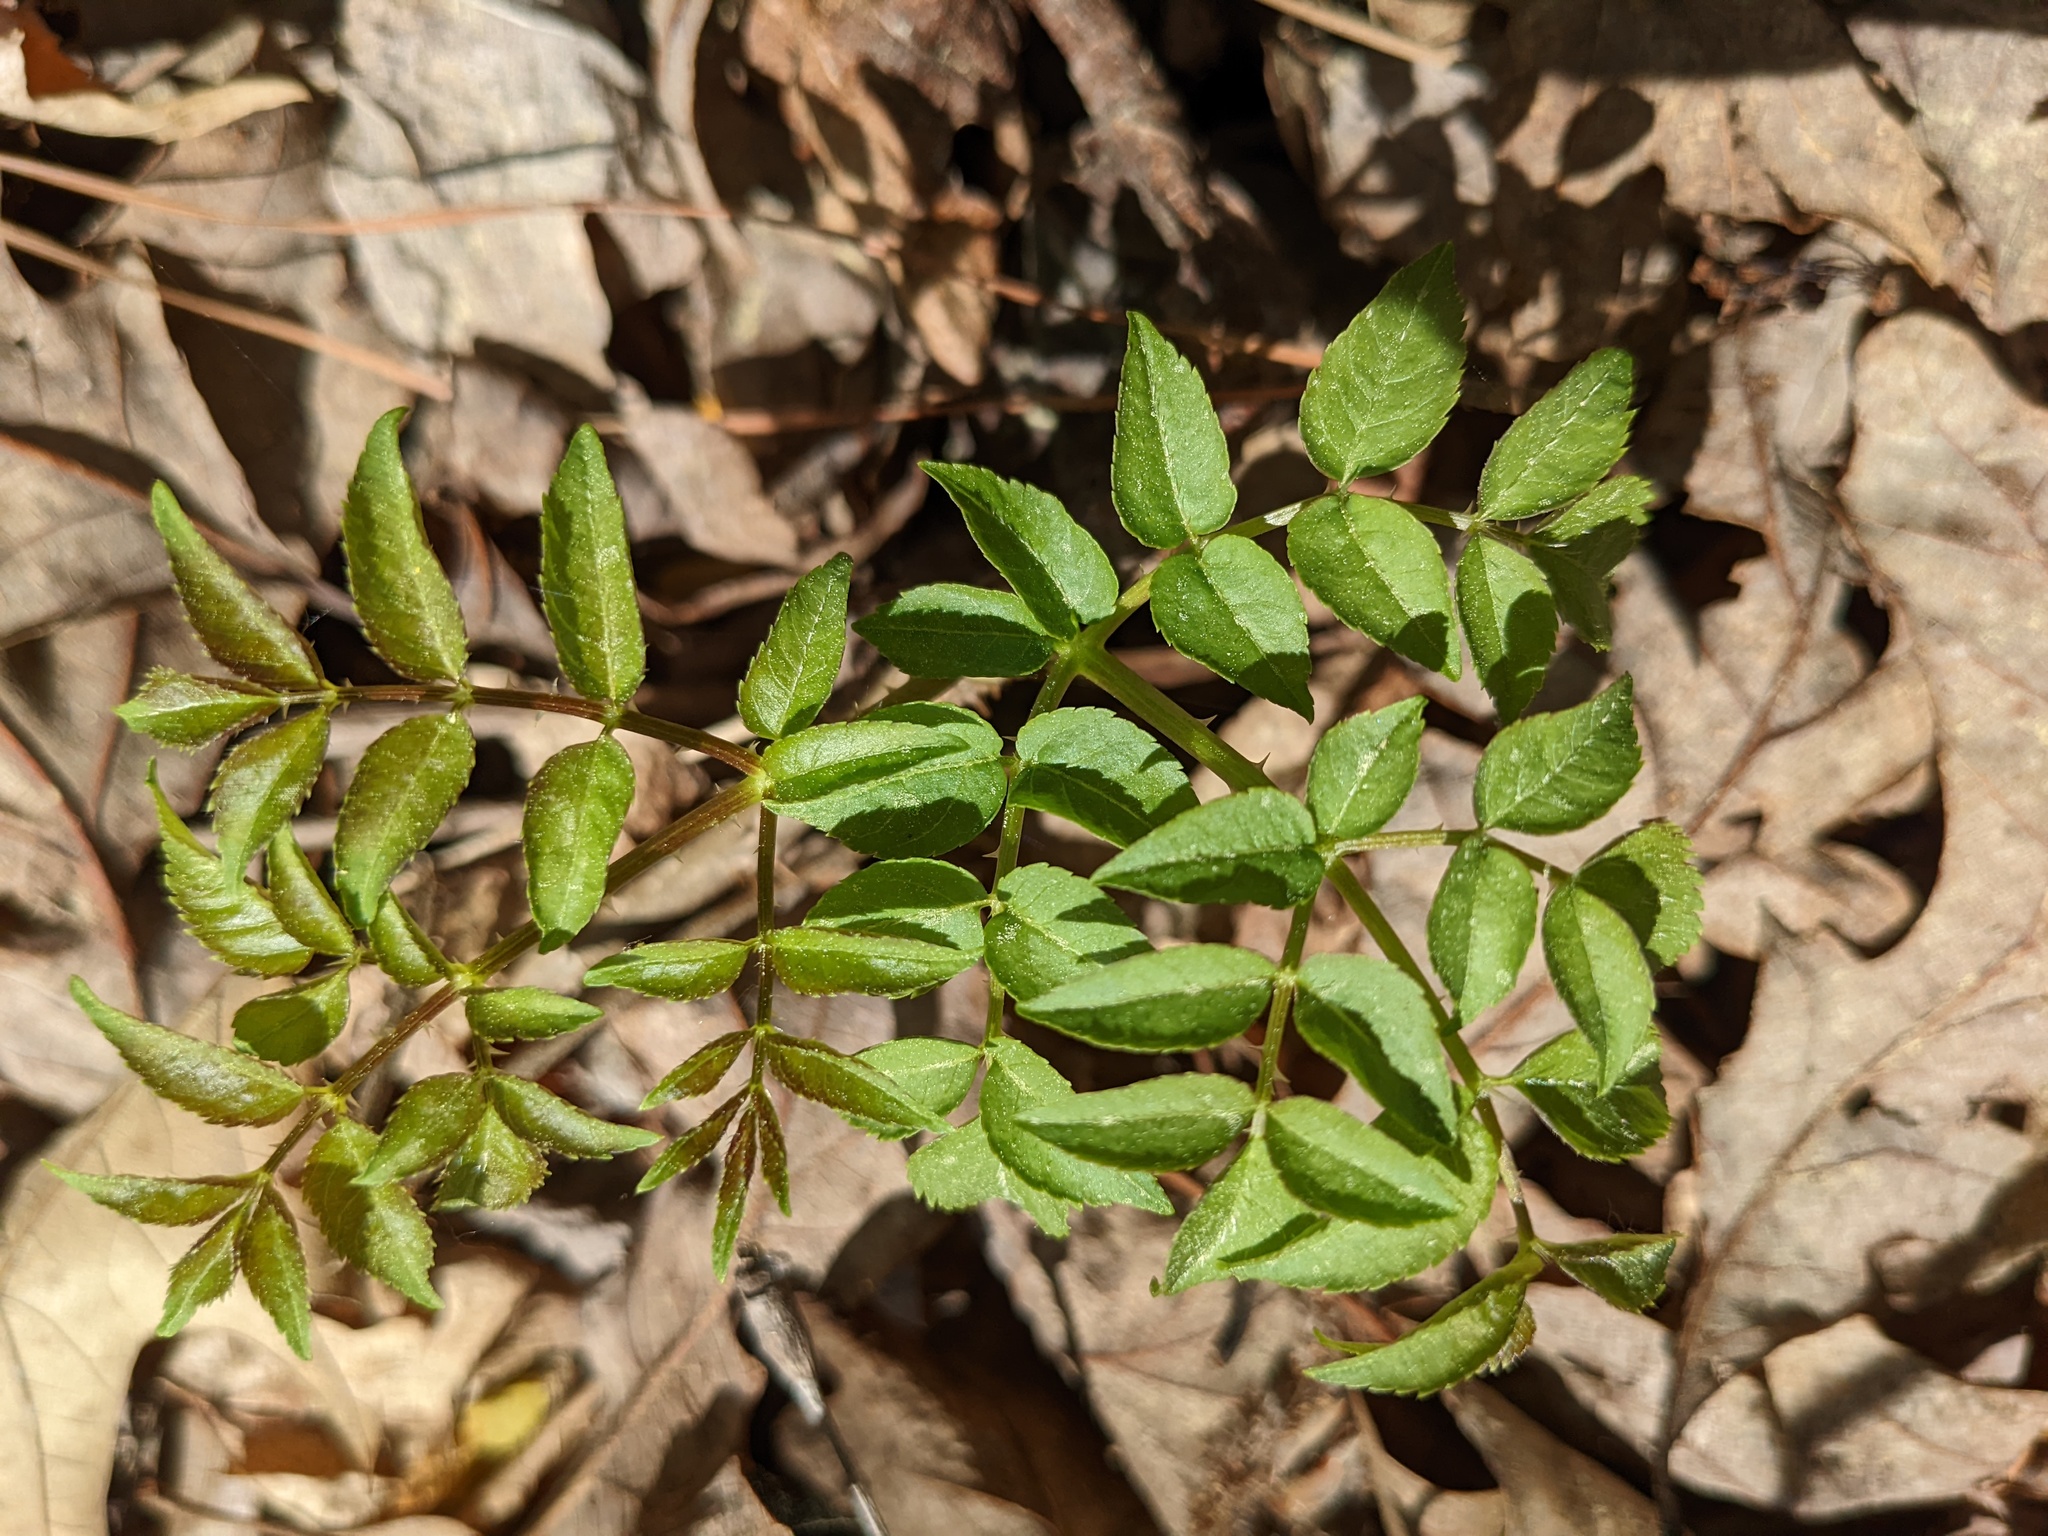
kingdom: Plantae
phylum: Tracheophyta
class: Magnoliopsida
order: Apiales
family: Araliaceae
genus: Aralia
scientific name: Aralia spinosa
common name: Hercules'-club
